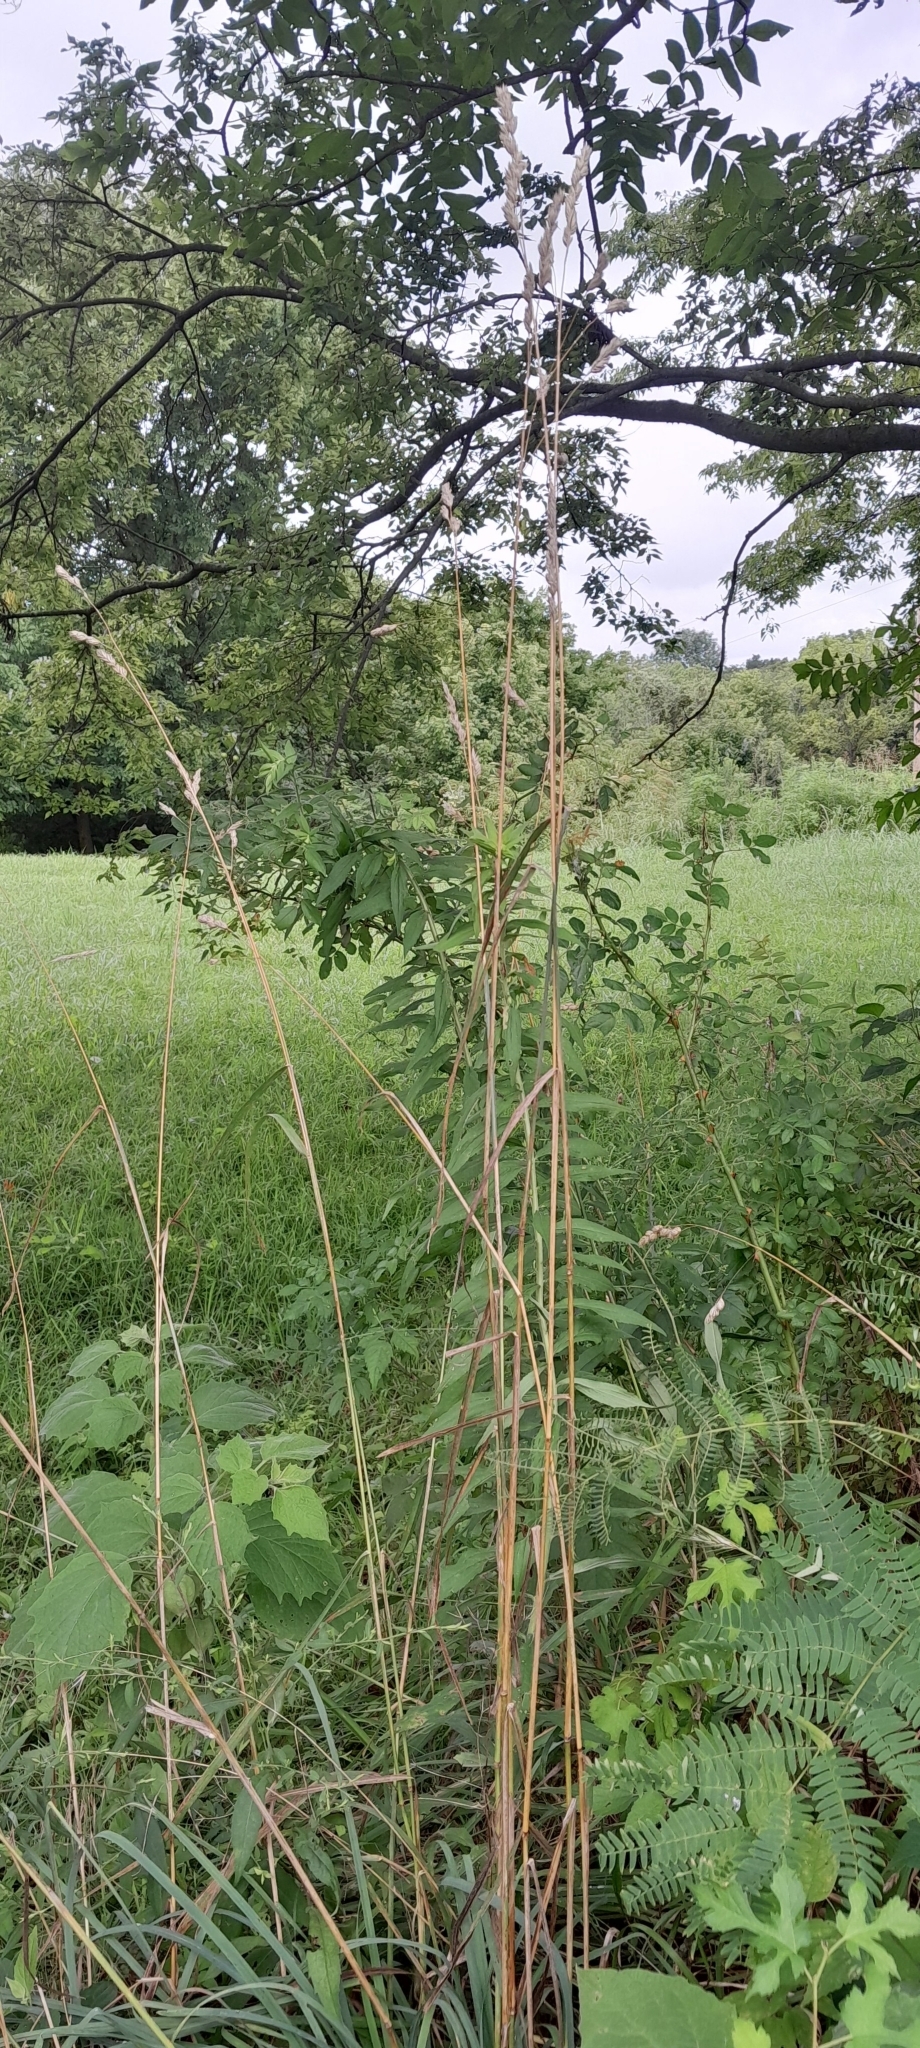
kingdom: Plantae
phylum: Tracheophyta
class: Liliopsida
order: Poales
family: Poaceae
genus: Dactylis
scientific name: Dactylis glomerata
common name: Orchardgrass
